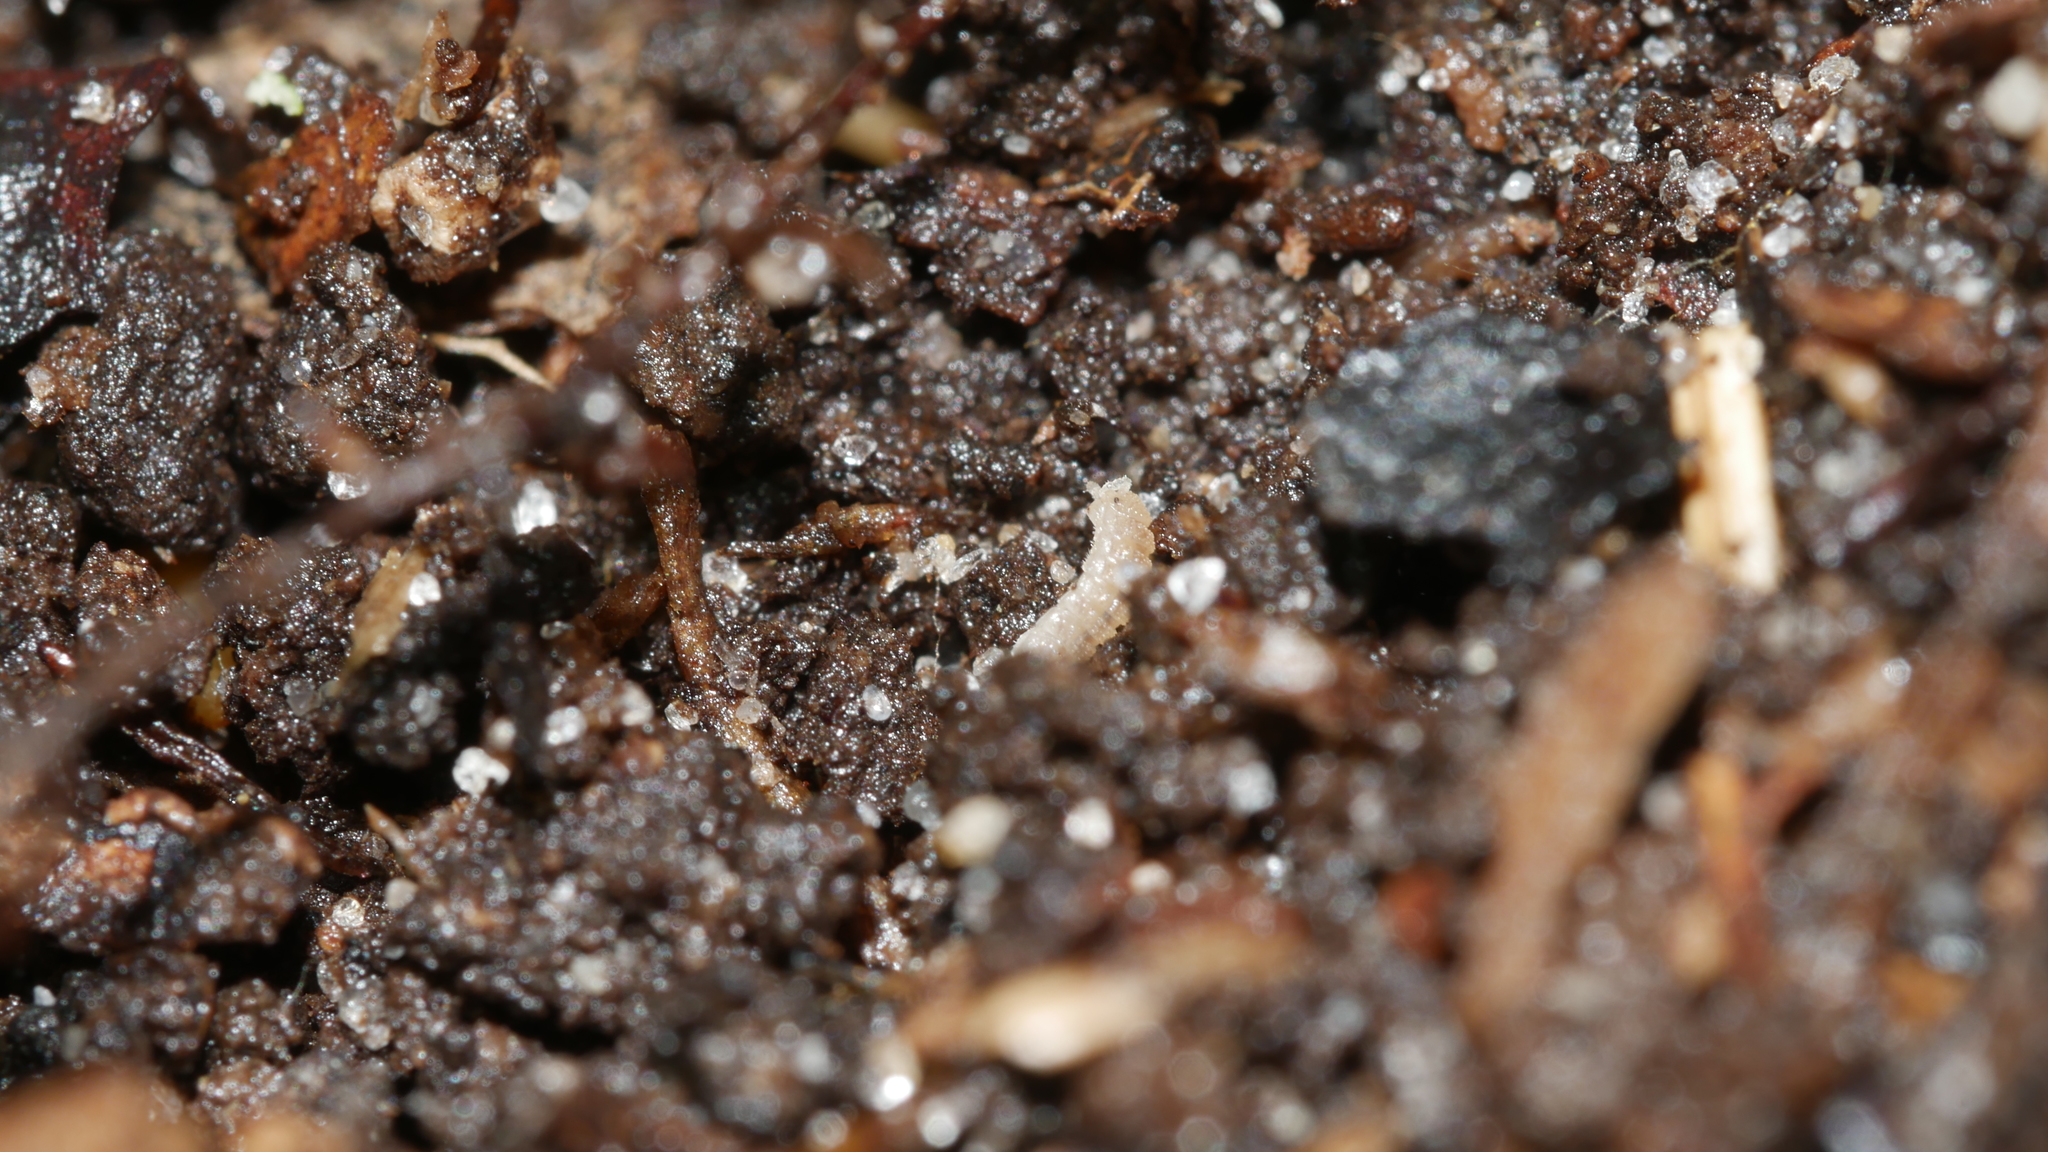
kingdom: Animalia
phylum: Arthropoda
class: Malacostraca
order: Isopoda
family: Trichoniscidae
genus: Haplophthalmus
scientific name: Haplophthalmus danicus
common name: Pillbug
